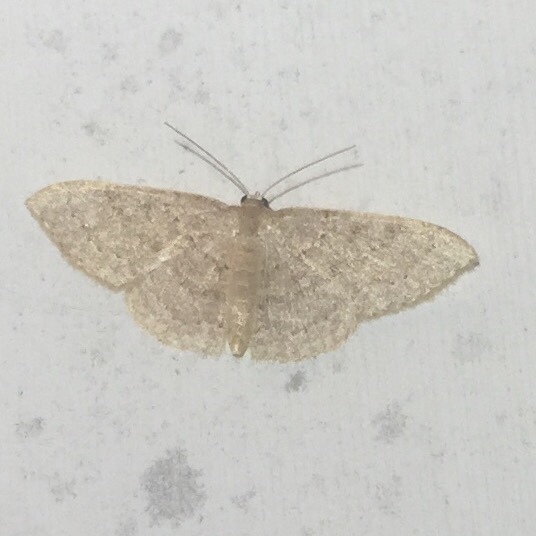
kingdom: Animalia
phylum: Arthropoda
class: Insecta
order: Lepidoptera
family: Geometridae
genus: Pleuroprucha
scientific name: Pleuroprucha insulsaria
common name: Common tan wave
